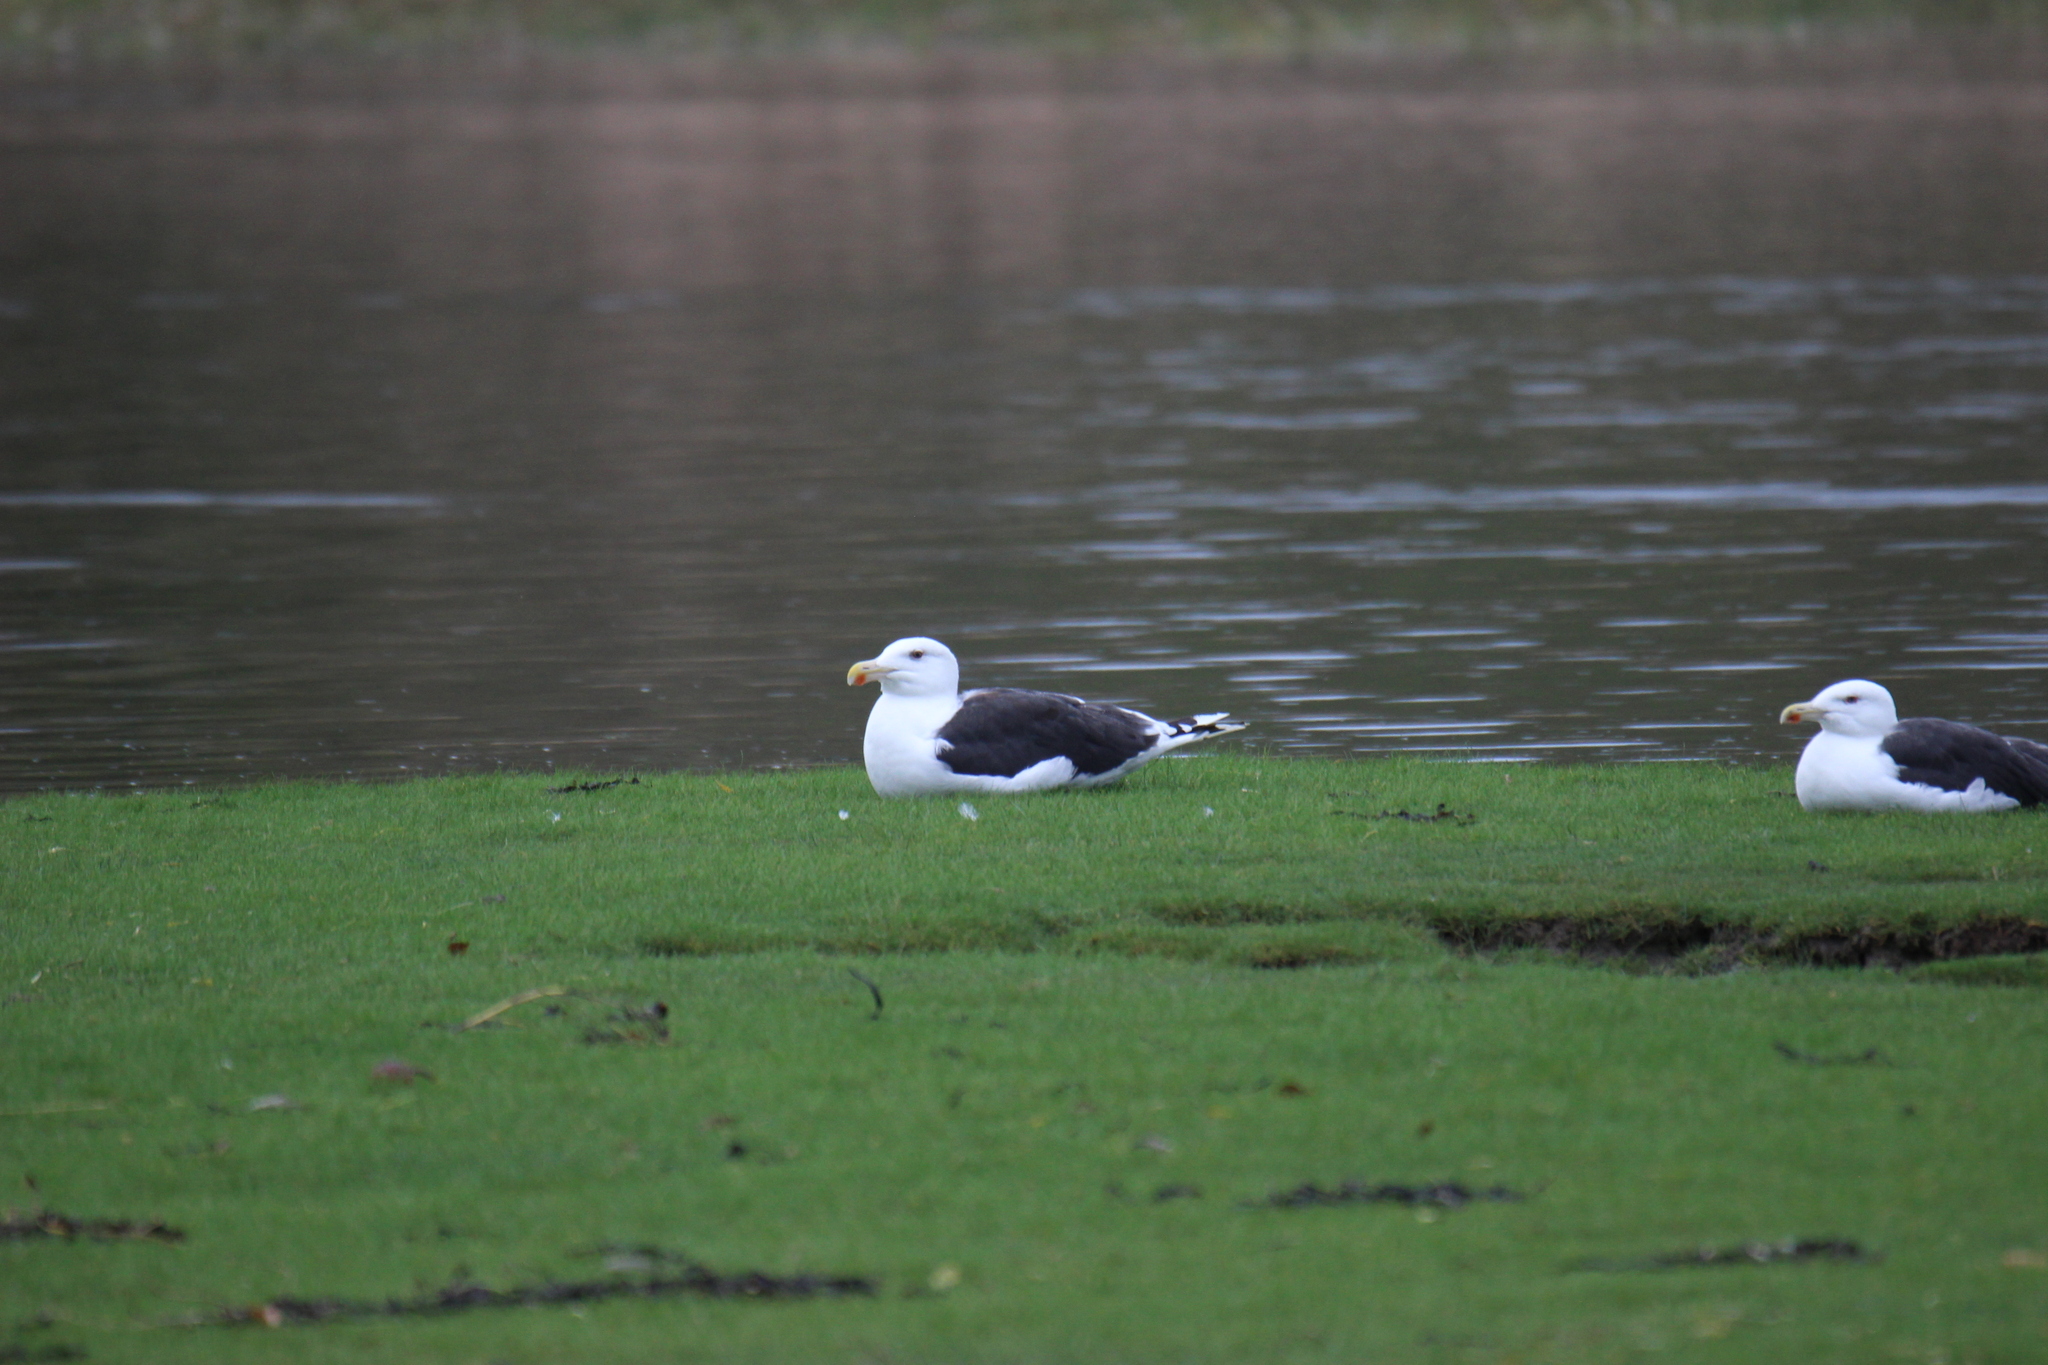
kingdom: Animalia
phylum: Chordata
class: Aves
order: Charadriiformes
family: Laridae
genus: Larus
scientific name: Larus marinus
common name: Great black-backed gull
